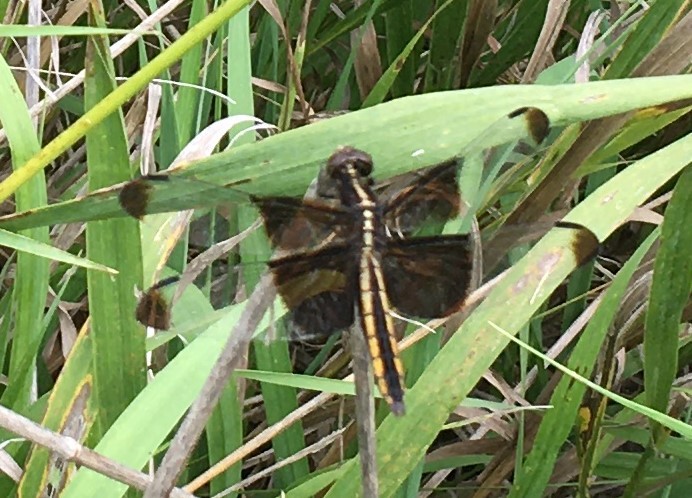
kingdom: Animalia
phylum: Arthropoda
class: Insecta
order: Odonata
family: Libellulidae
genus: Libellula
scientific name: Libellula luctuosa
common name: Widow skimmer
